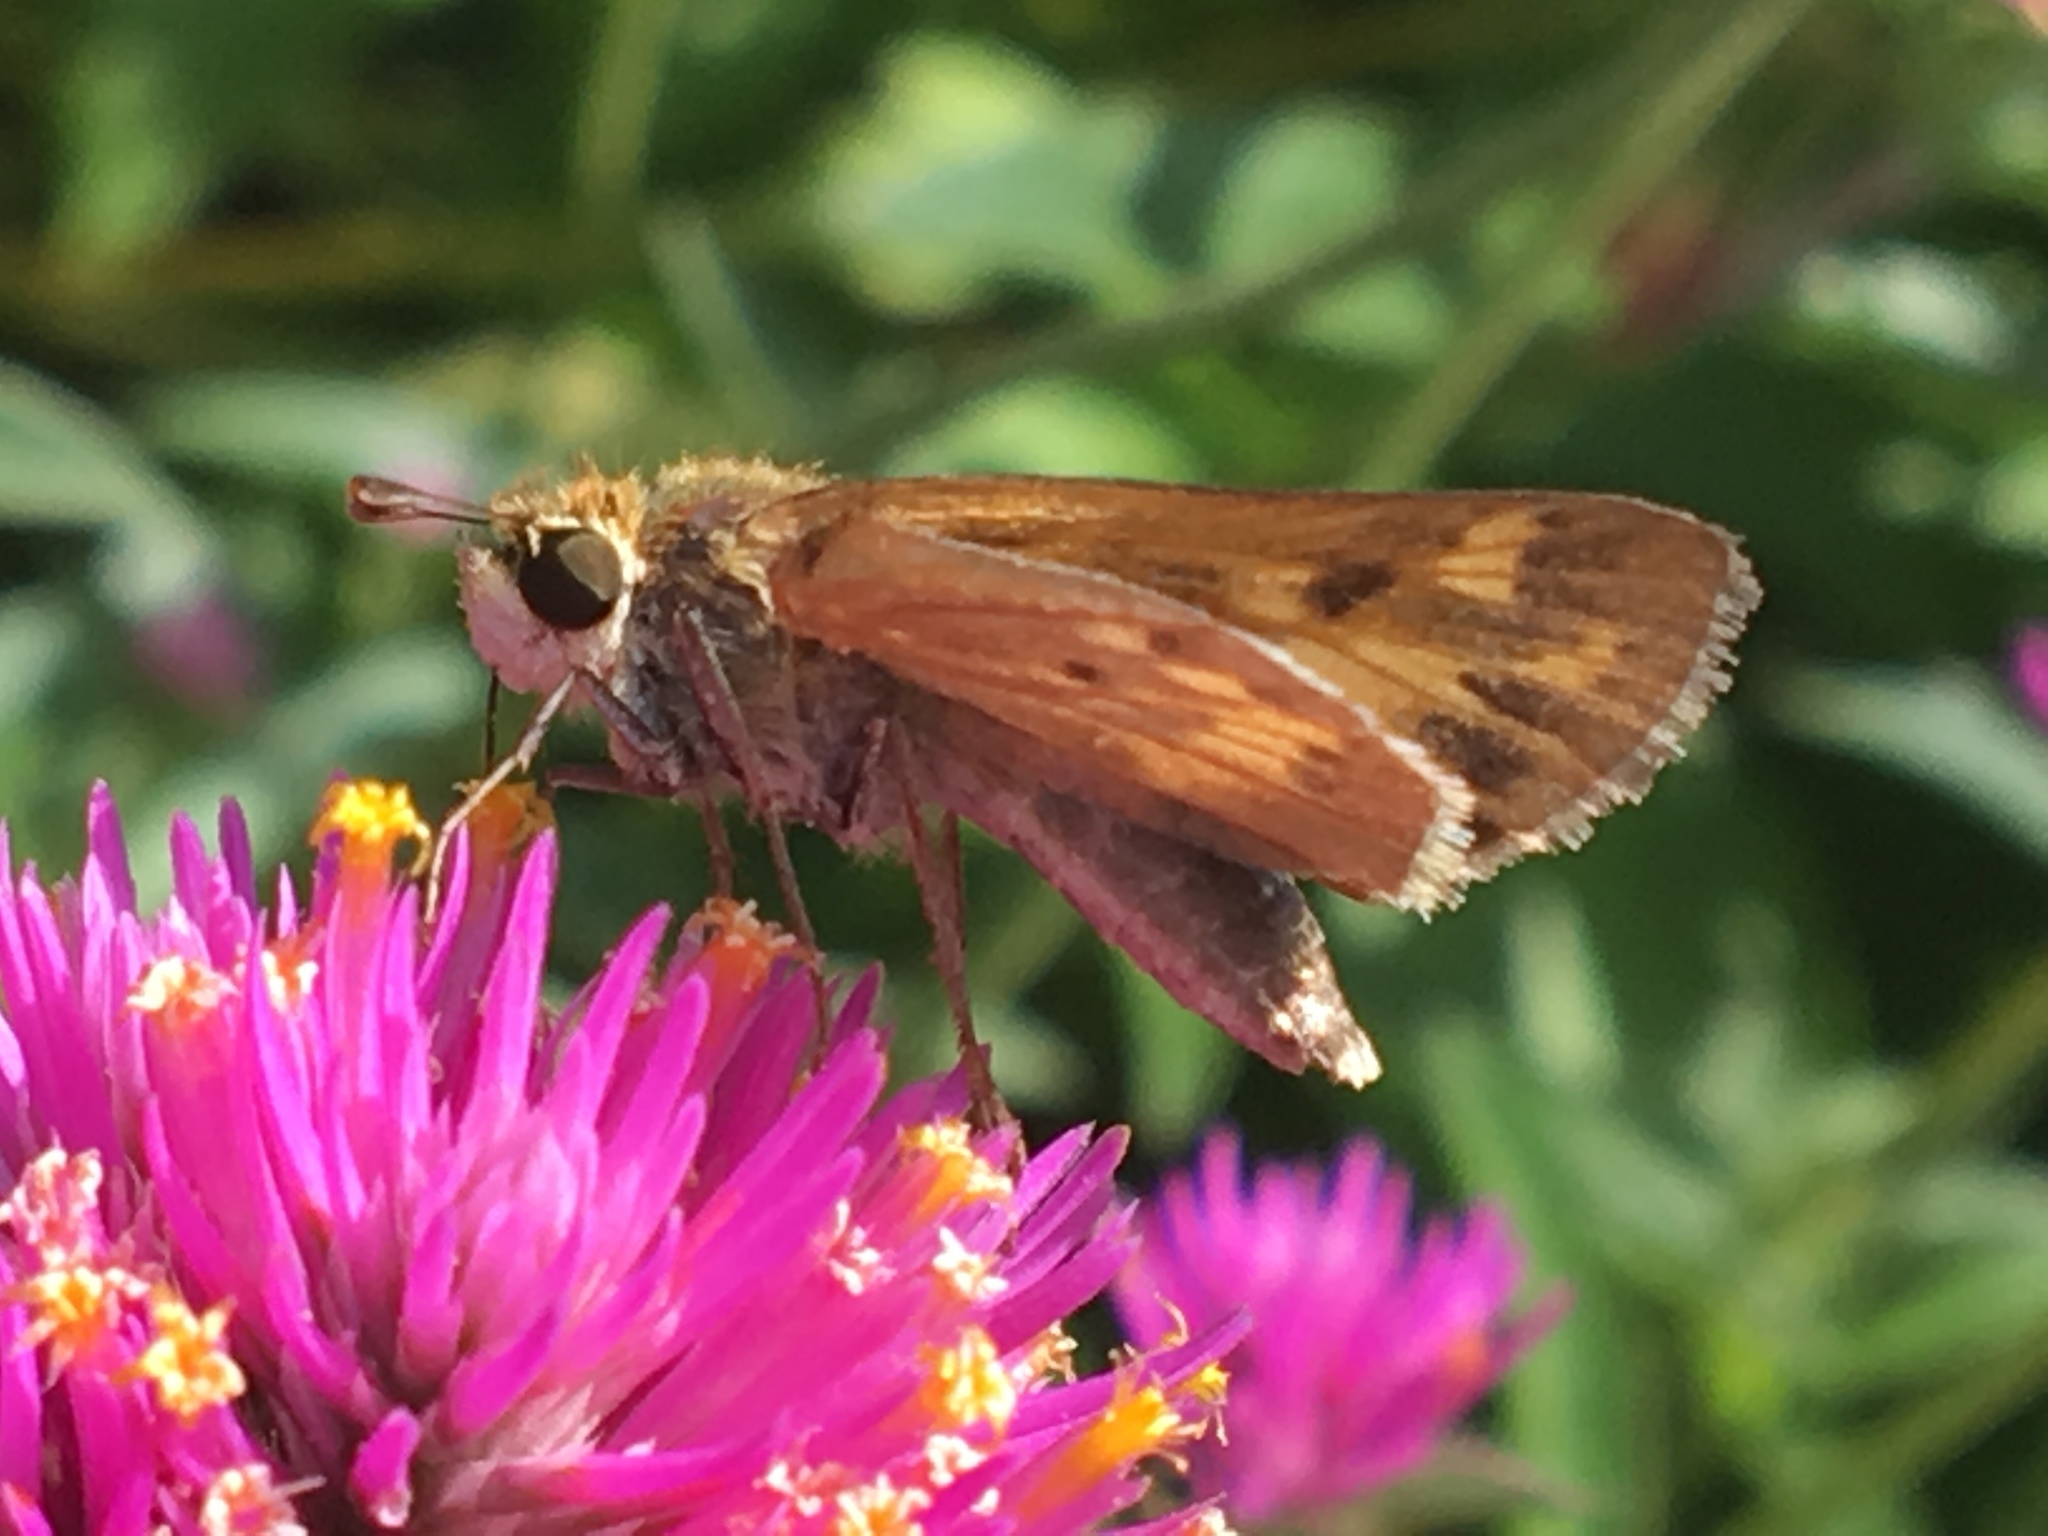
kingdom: Animalia
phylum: Arthropoda
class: Insecta
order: Lepidoptera
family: Hesperiidae
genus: Hylephila
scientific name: Hylephila phyleus
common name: Fiery skipper
